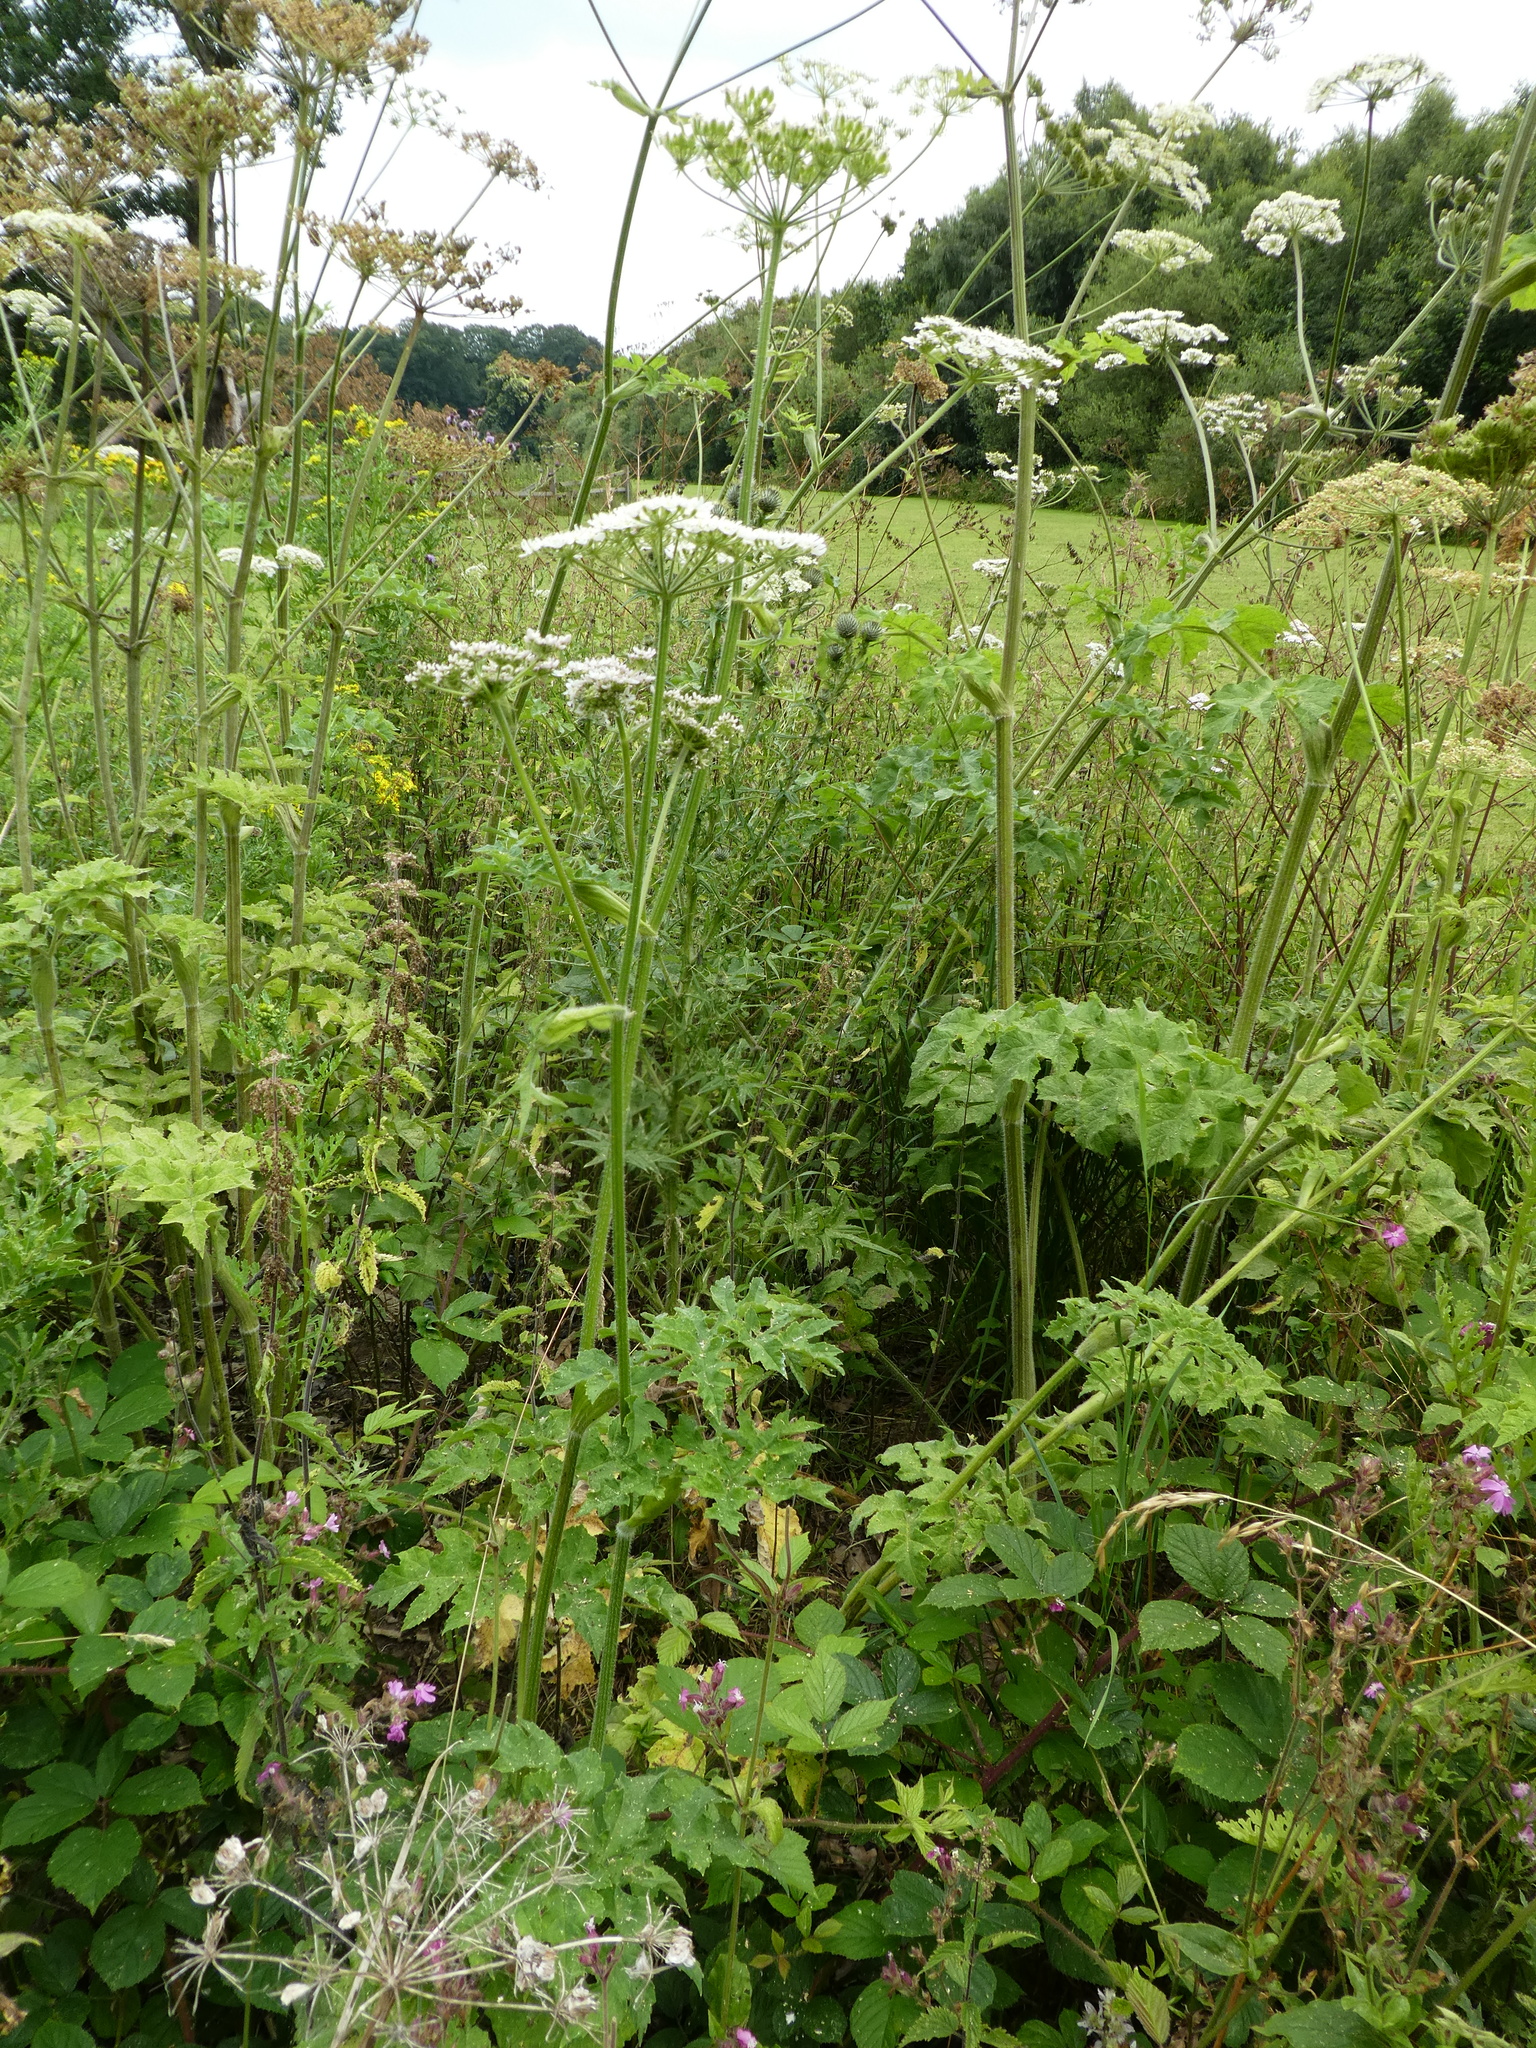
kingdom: Plantae
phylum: Tracheophyta
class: Magnoliopsida
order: Apiales
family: Apiaceae
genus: Heracleum
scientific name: Heracleum sphondylium
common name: Hogweed
